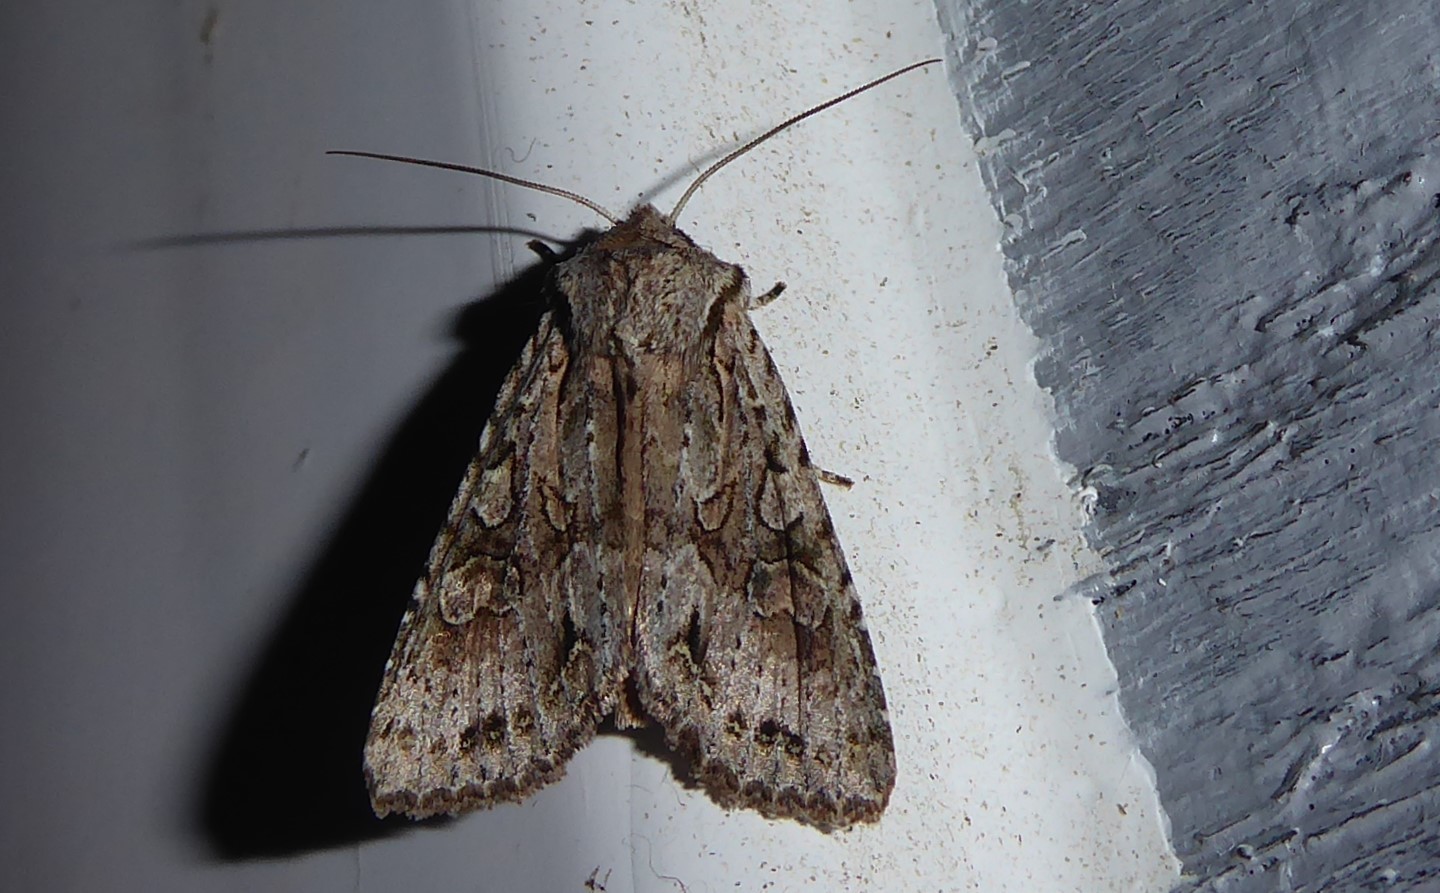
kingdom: Animalia
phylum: Arthropoda
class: Insecta
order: Lepidoptera
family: Noctuidae
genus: Ichneutica
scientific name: Ichneutica mutans
